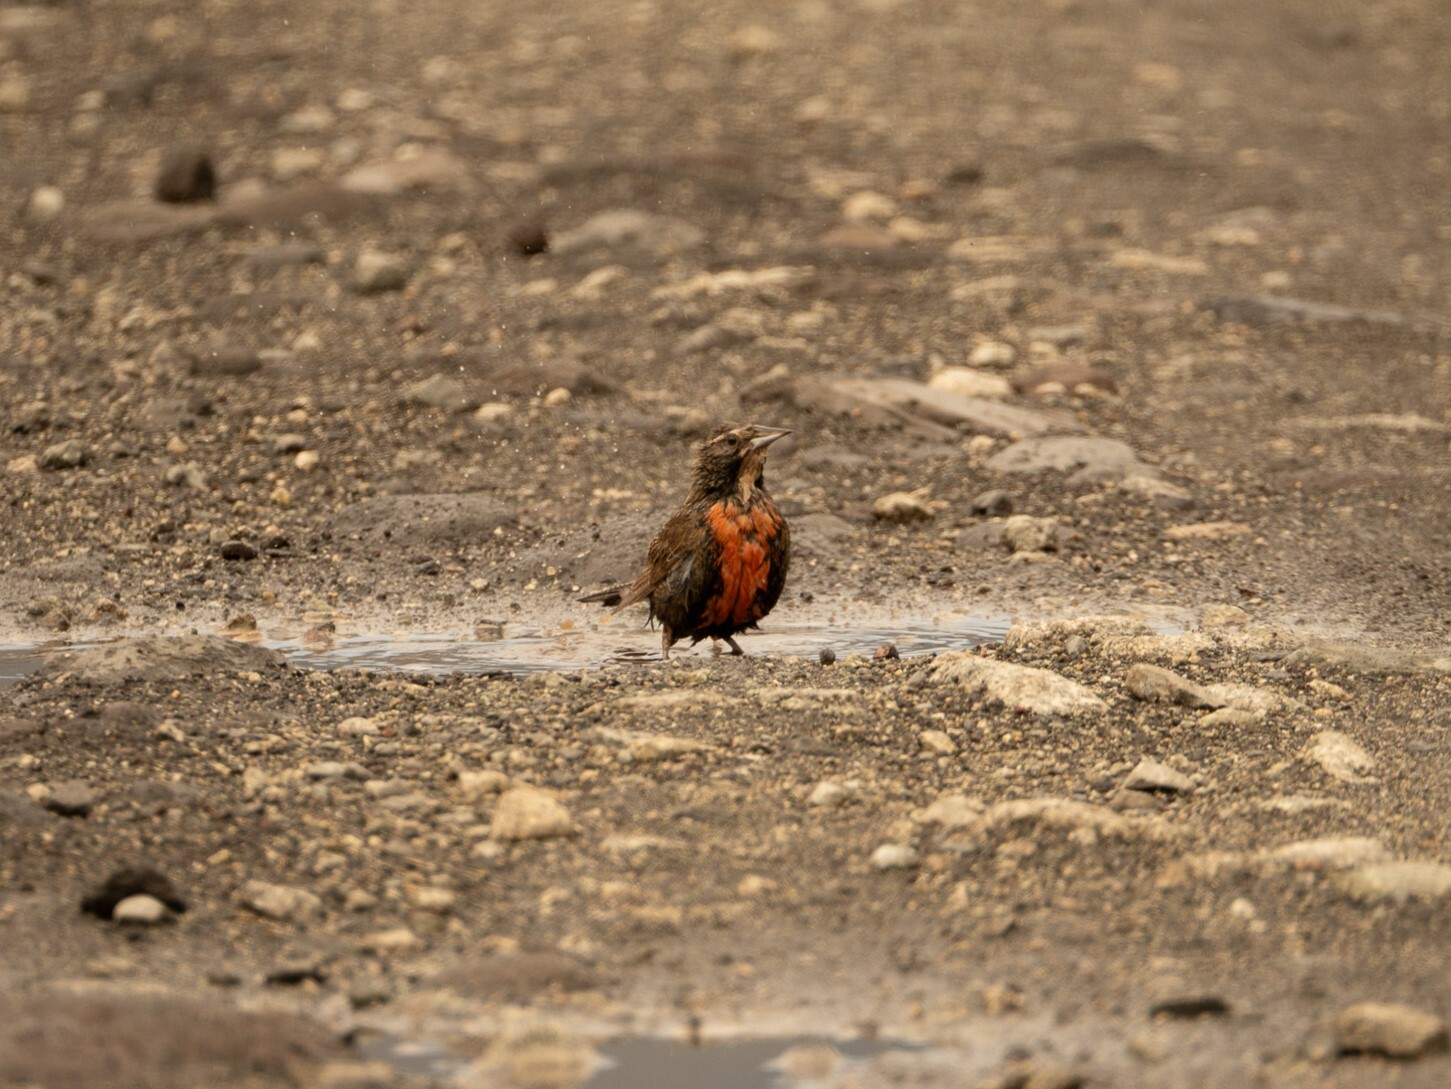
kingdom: Animalia
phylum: Chordata
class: Aves
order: Passeriformes
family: Icteridae
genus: Sturnella
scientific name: Sturnella loyca
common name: Long-tailed meadowlark
